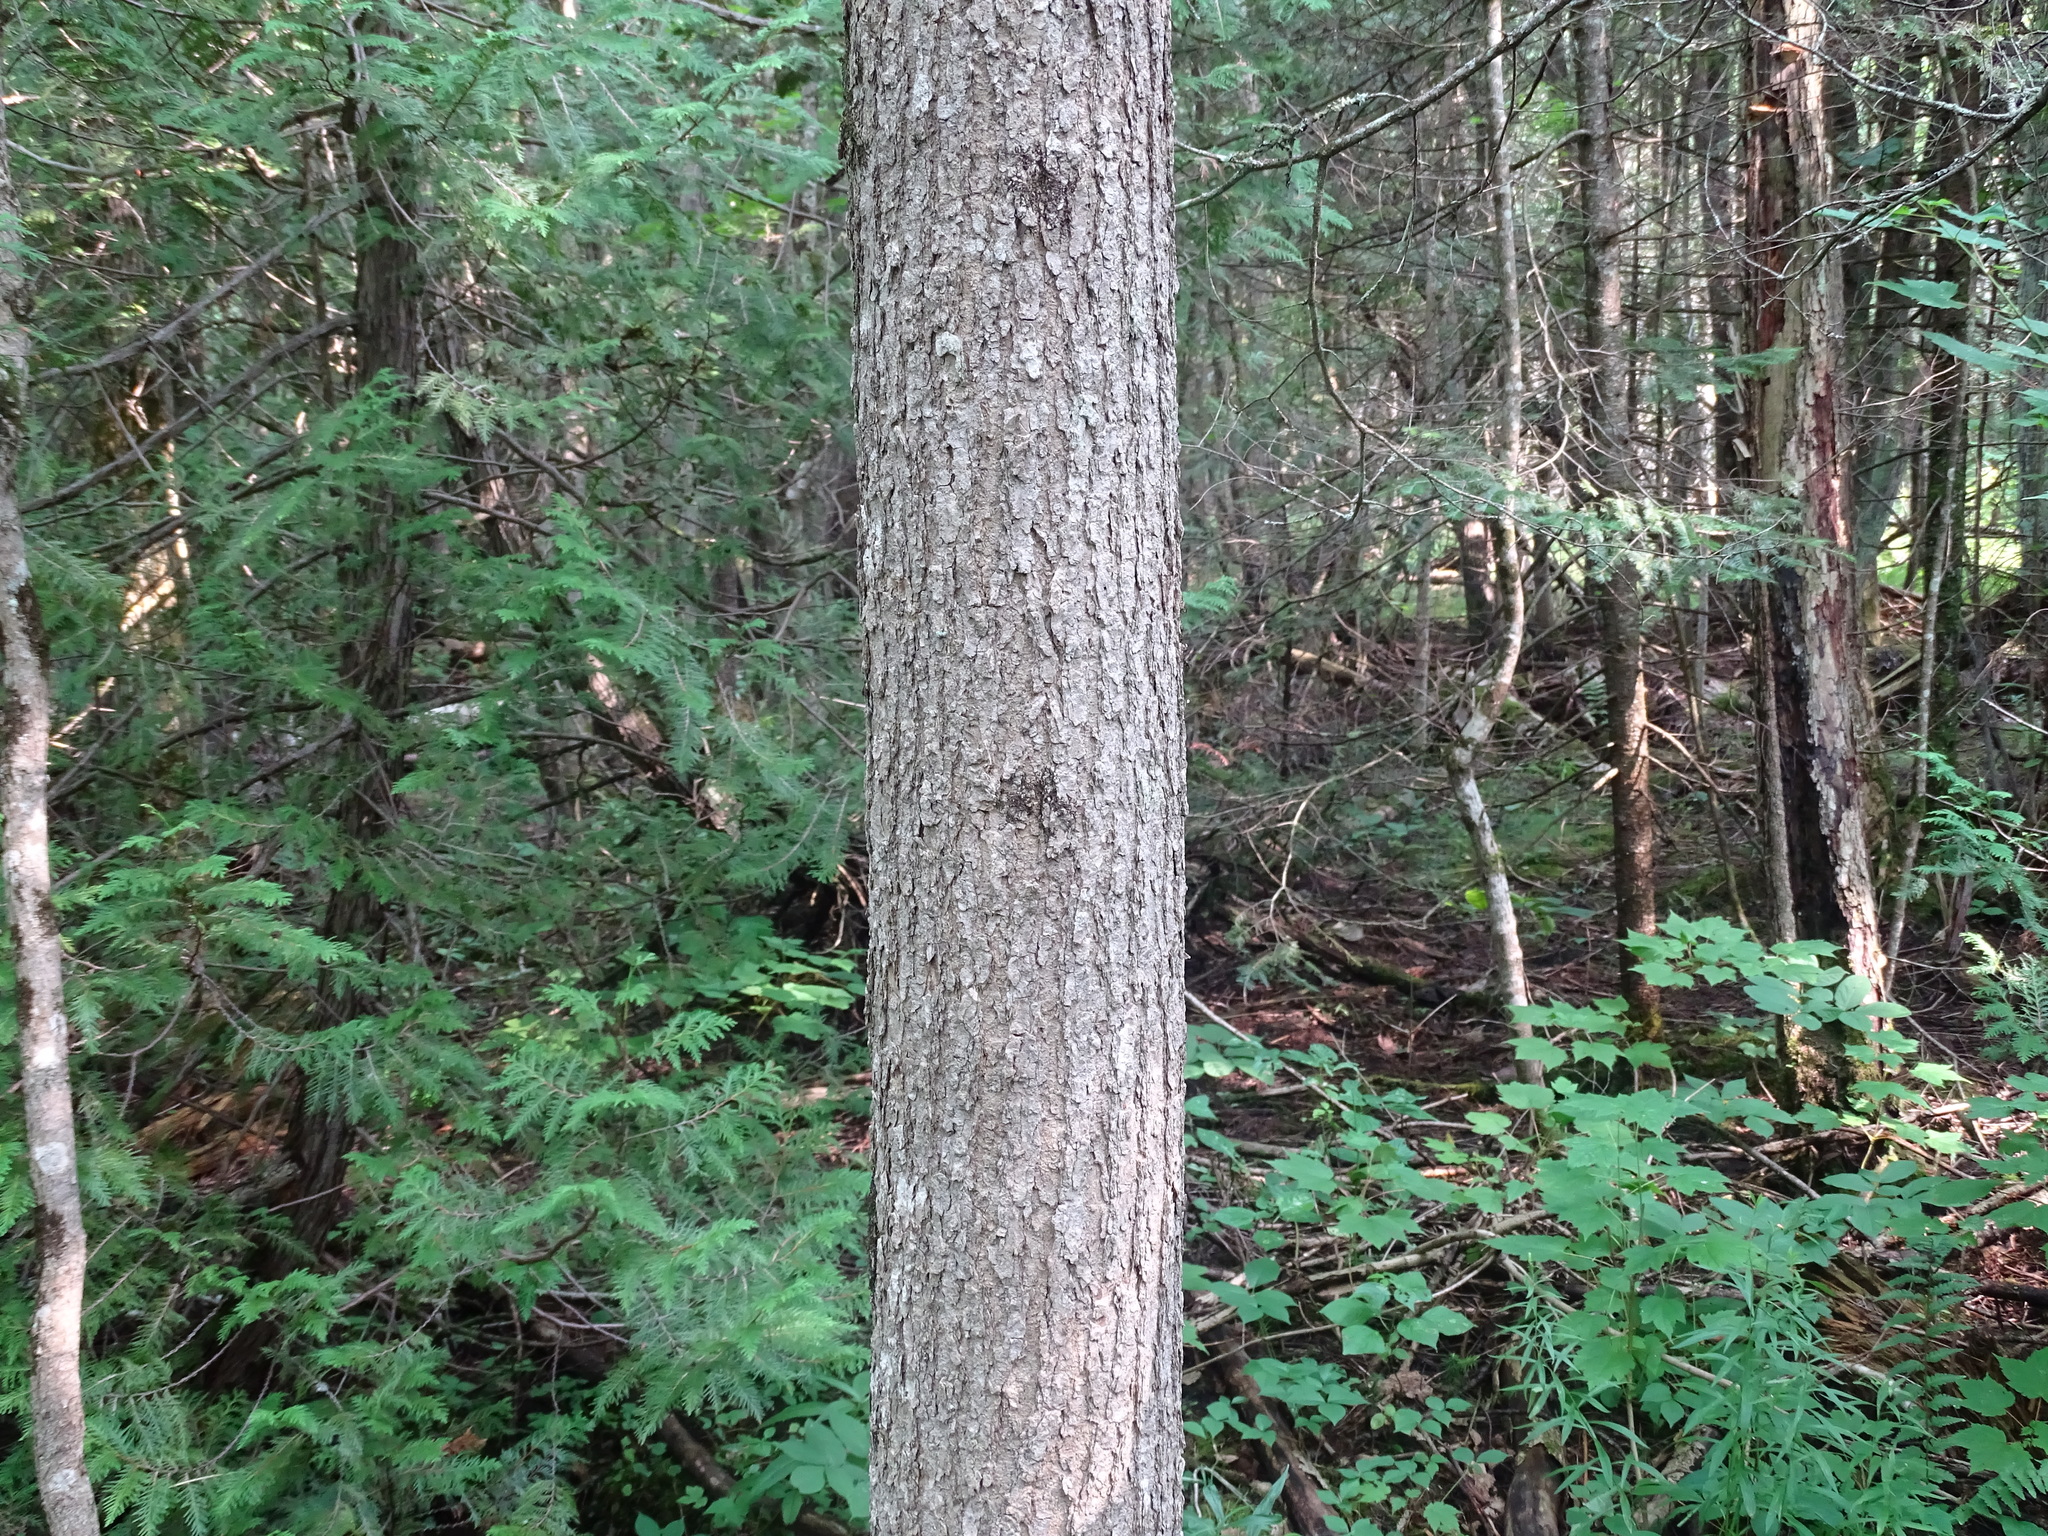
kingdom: Plantae
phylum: Tracheophyta
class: Magnoliopsida
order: Lamiales
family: Oleaceae
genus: Fraxinus
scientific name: Fraxinus nigra
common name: Black ash
